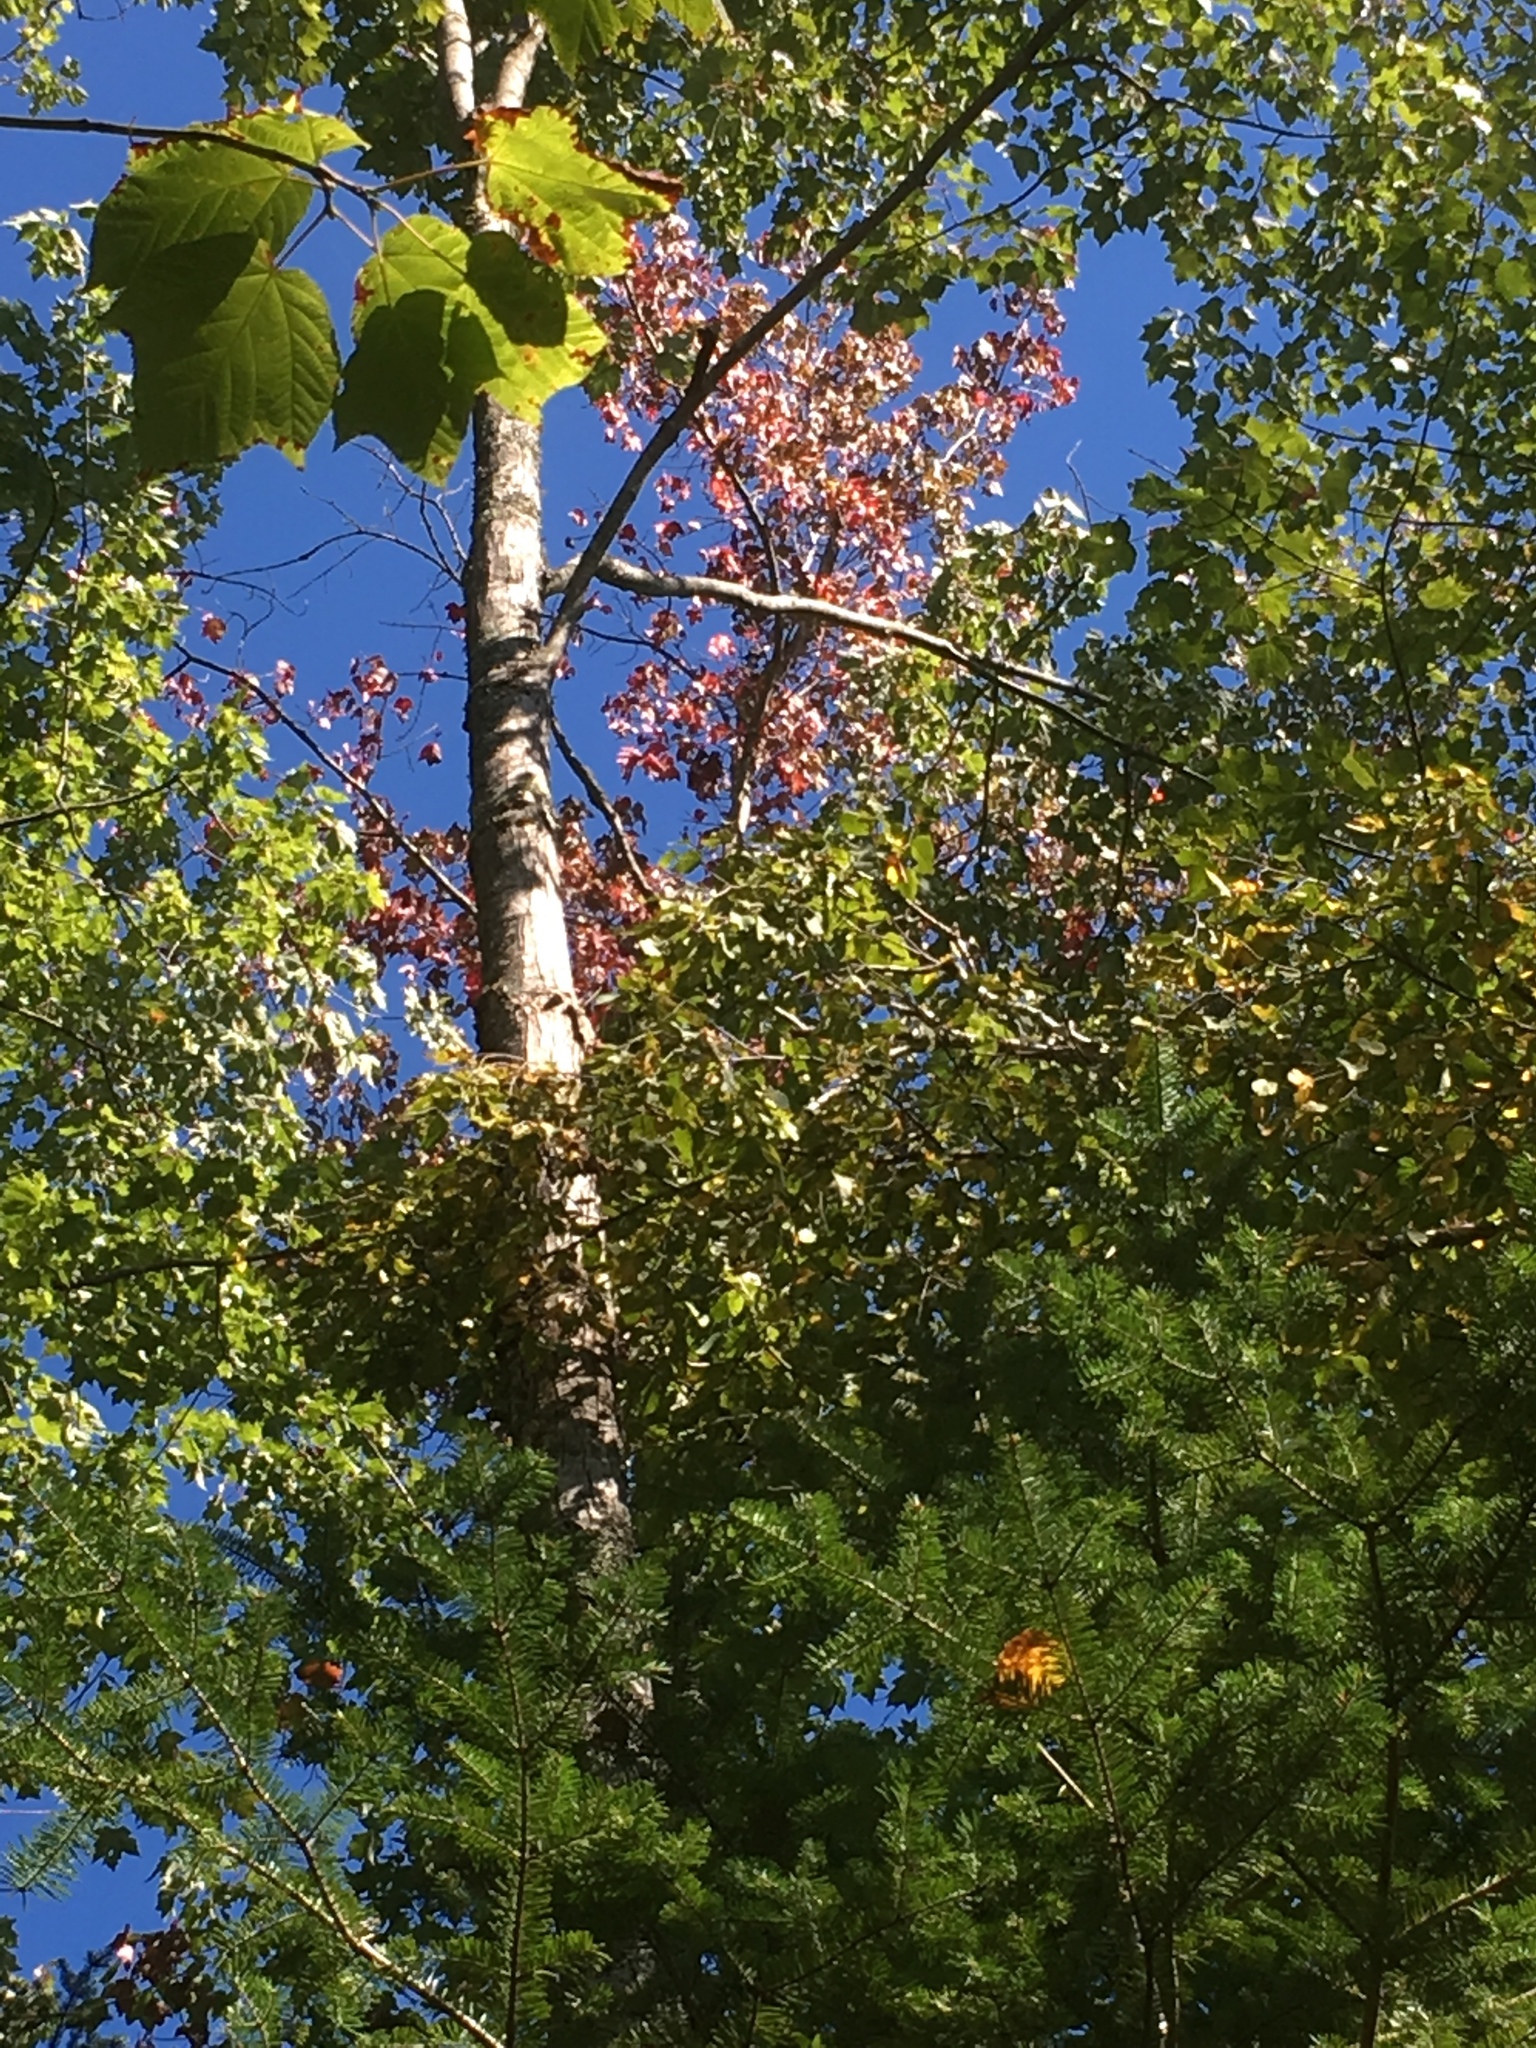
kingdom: Plantae
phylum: Tracheophyta
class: Magnoliopsida
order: Sapindales
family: Sapindaceae
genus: Acer
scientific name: Acer rubrum
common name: Red maple
